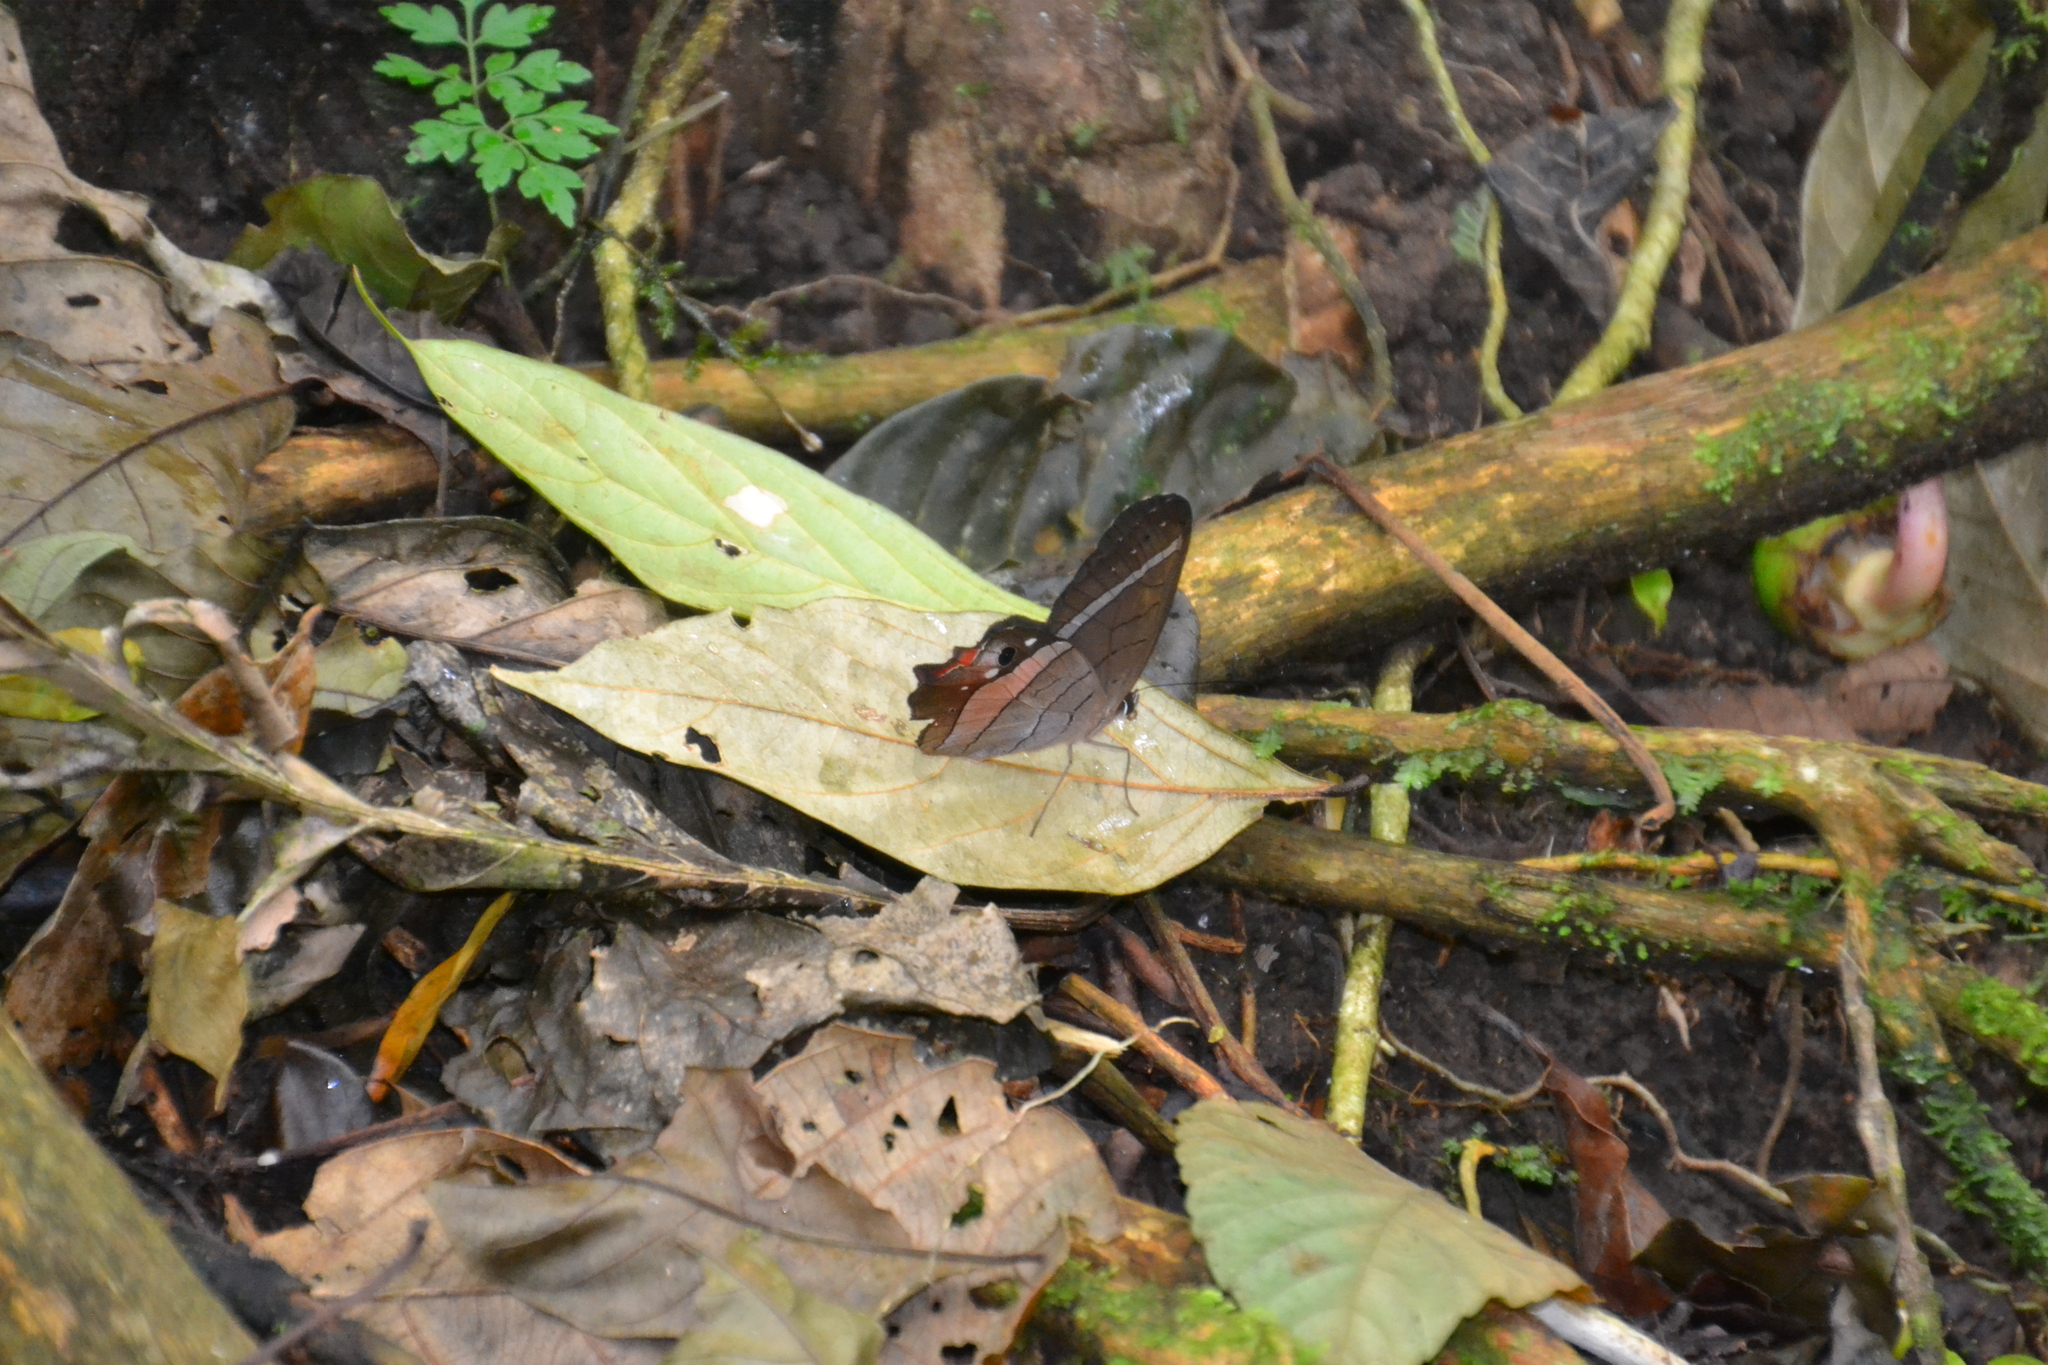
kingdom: Animalia
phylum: Arthropoda
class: Insecta
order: Lepidoptera
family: Nymphalidae
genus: Pierella
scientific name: Pierella helvina
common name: Red-washed satyr
